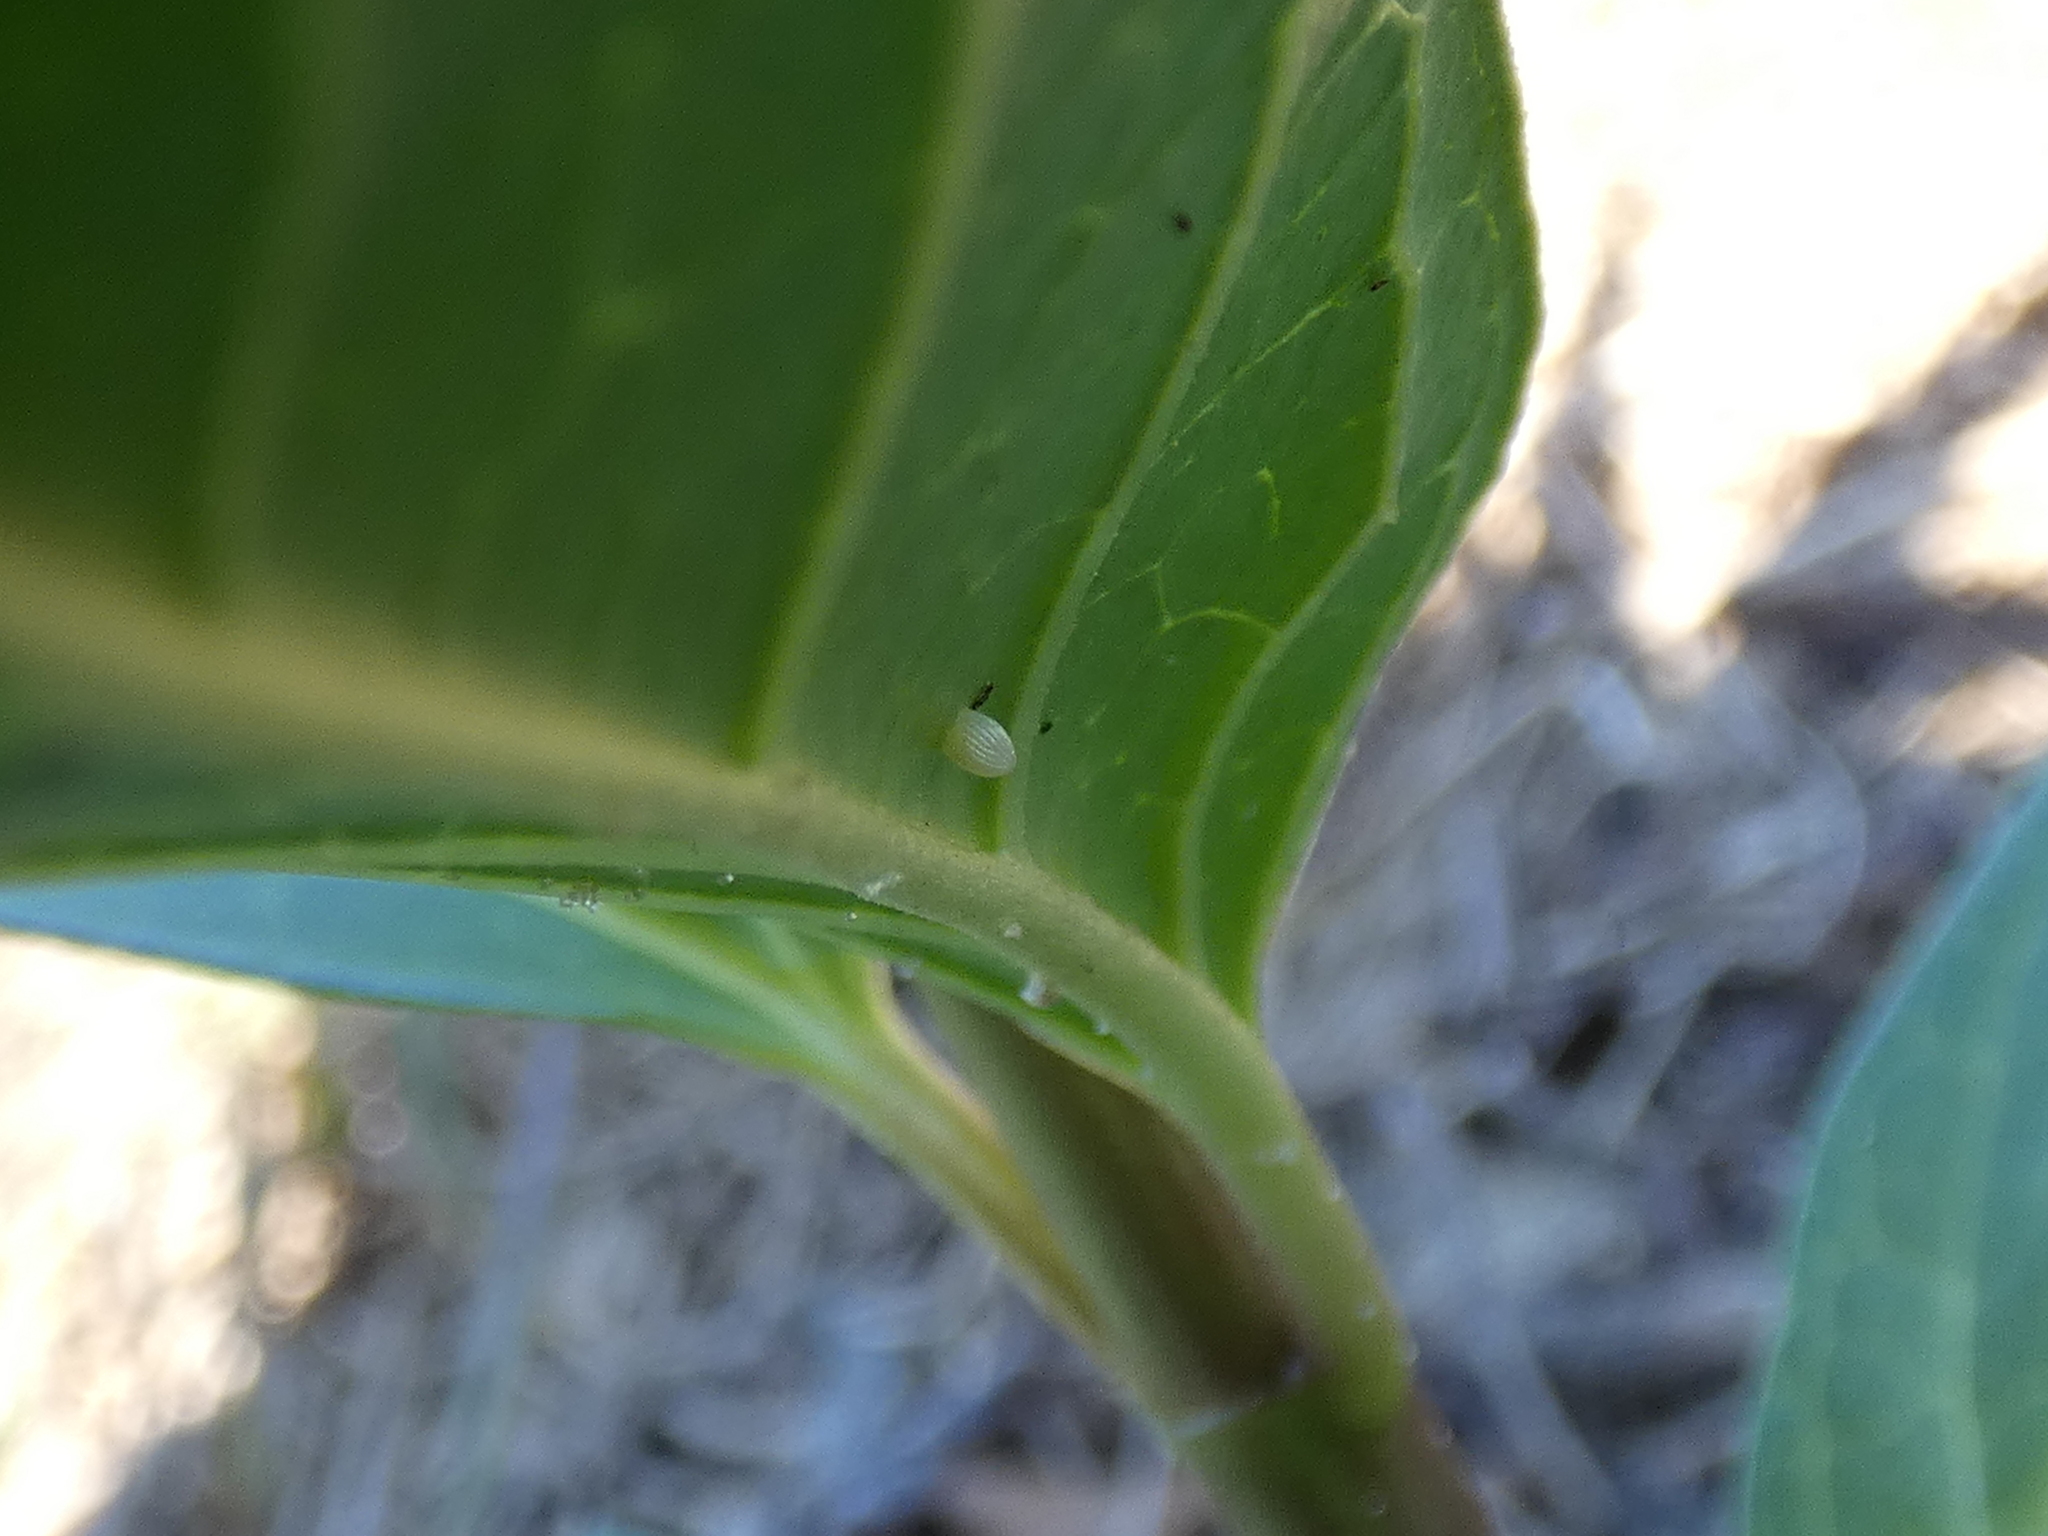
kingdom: Animalia
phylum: Arthropoda
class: Insecta
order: Lepidoptera
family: Nymphalidae
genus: Danaus
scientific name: Danaus plexippus
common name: Monarch
